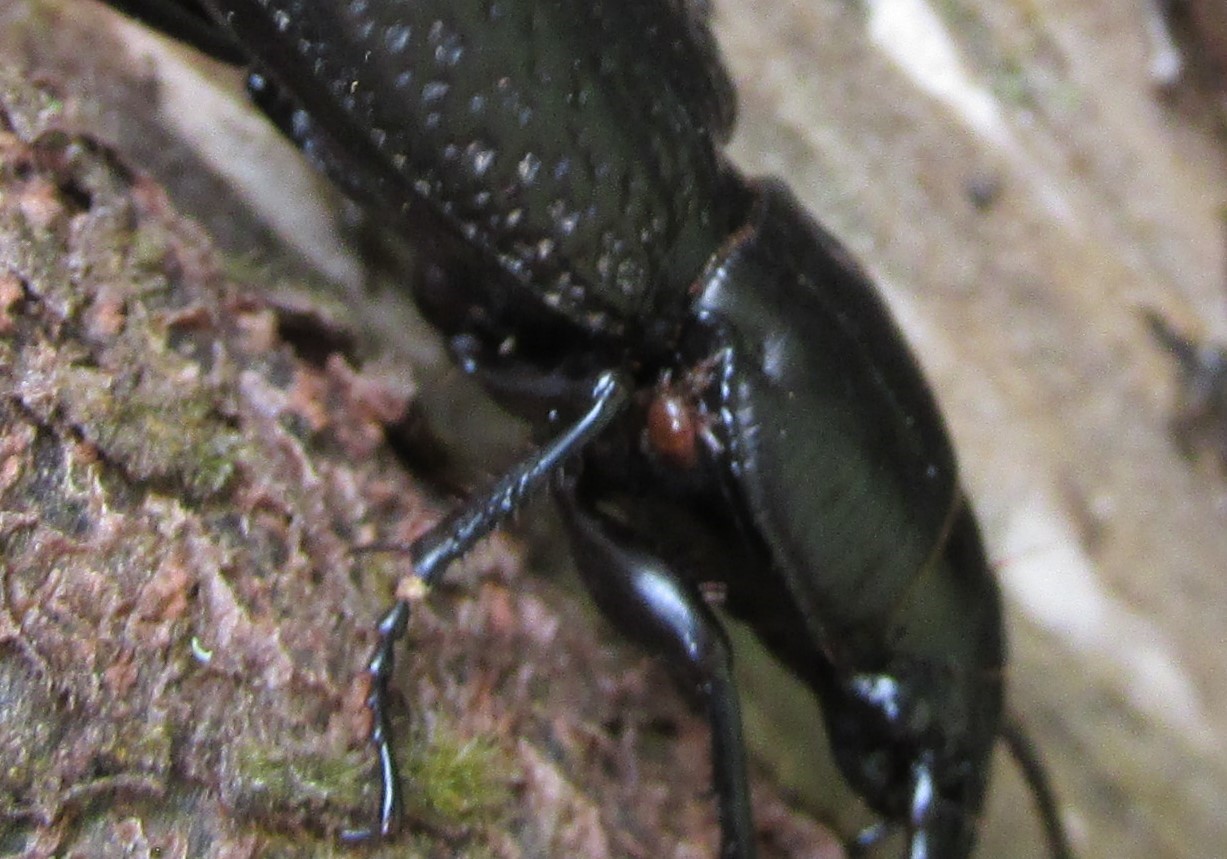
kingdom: Animalia
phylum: Arthropoda
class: Insecta
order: Coleoptera
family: Carabidae
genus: Mecodema
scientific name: Mecodema crenaticolle
